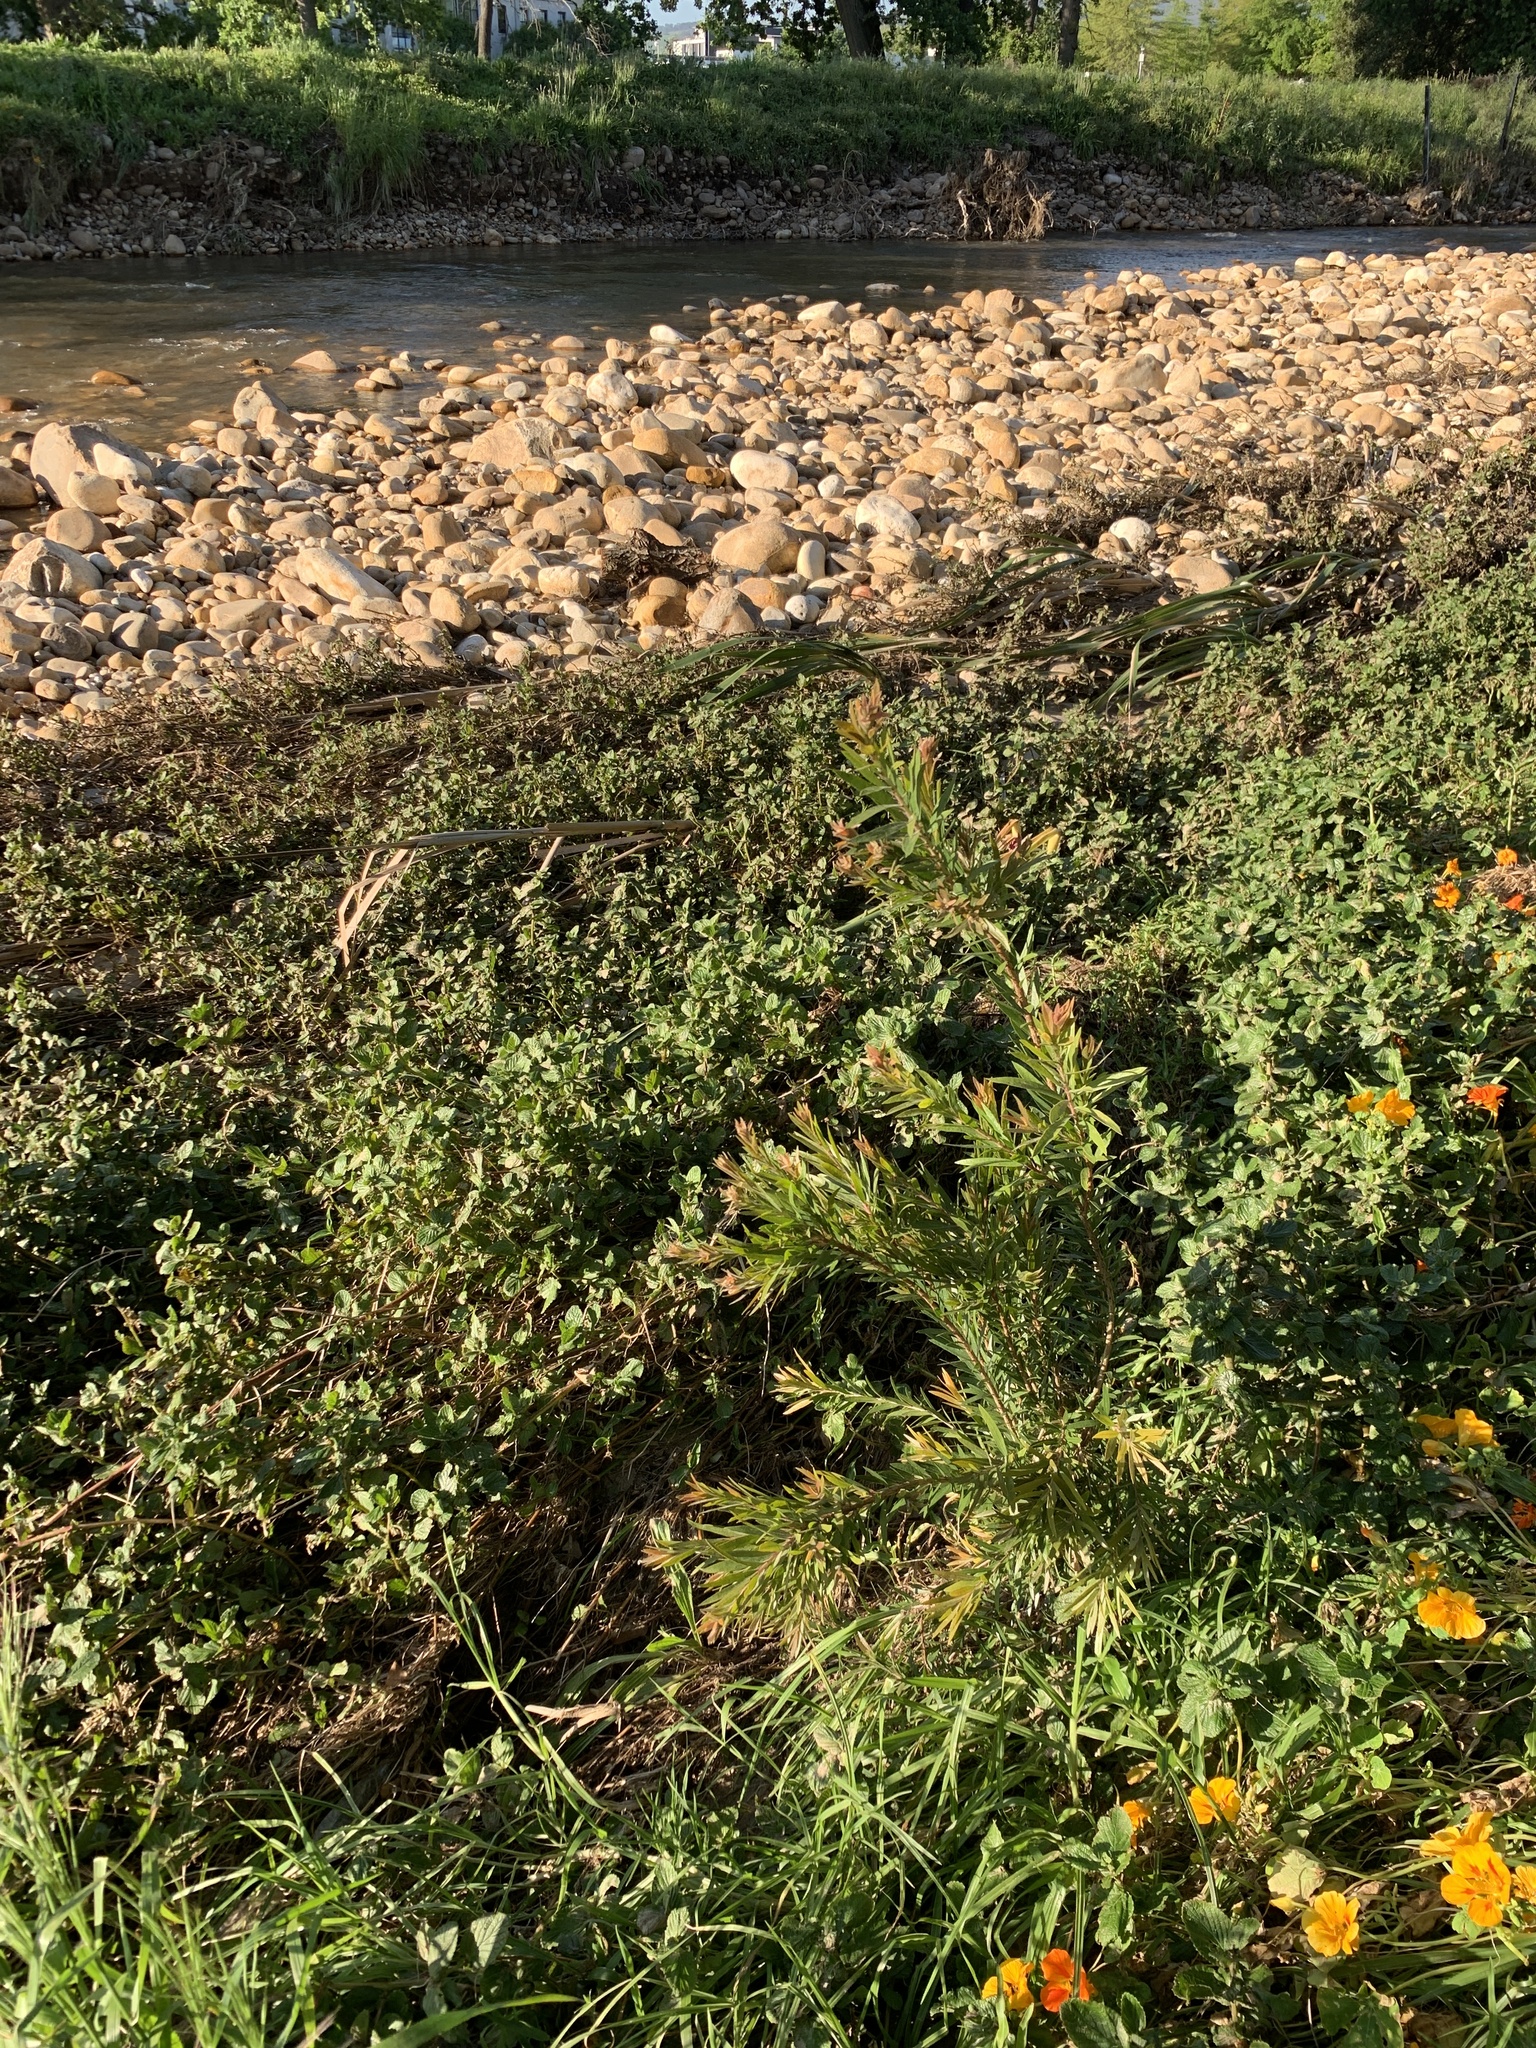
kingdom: Plantae
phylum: Tracheophyta
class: Magnoliopsida
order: Myrtales
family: Myrtaceae
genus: Callistemon
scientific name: Callistemon viminalis
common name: Drooping bottlebrush
